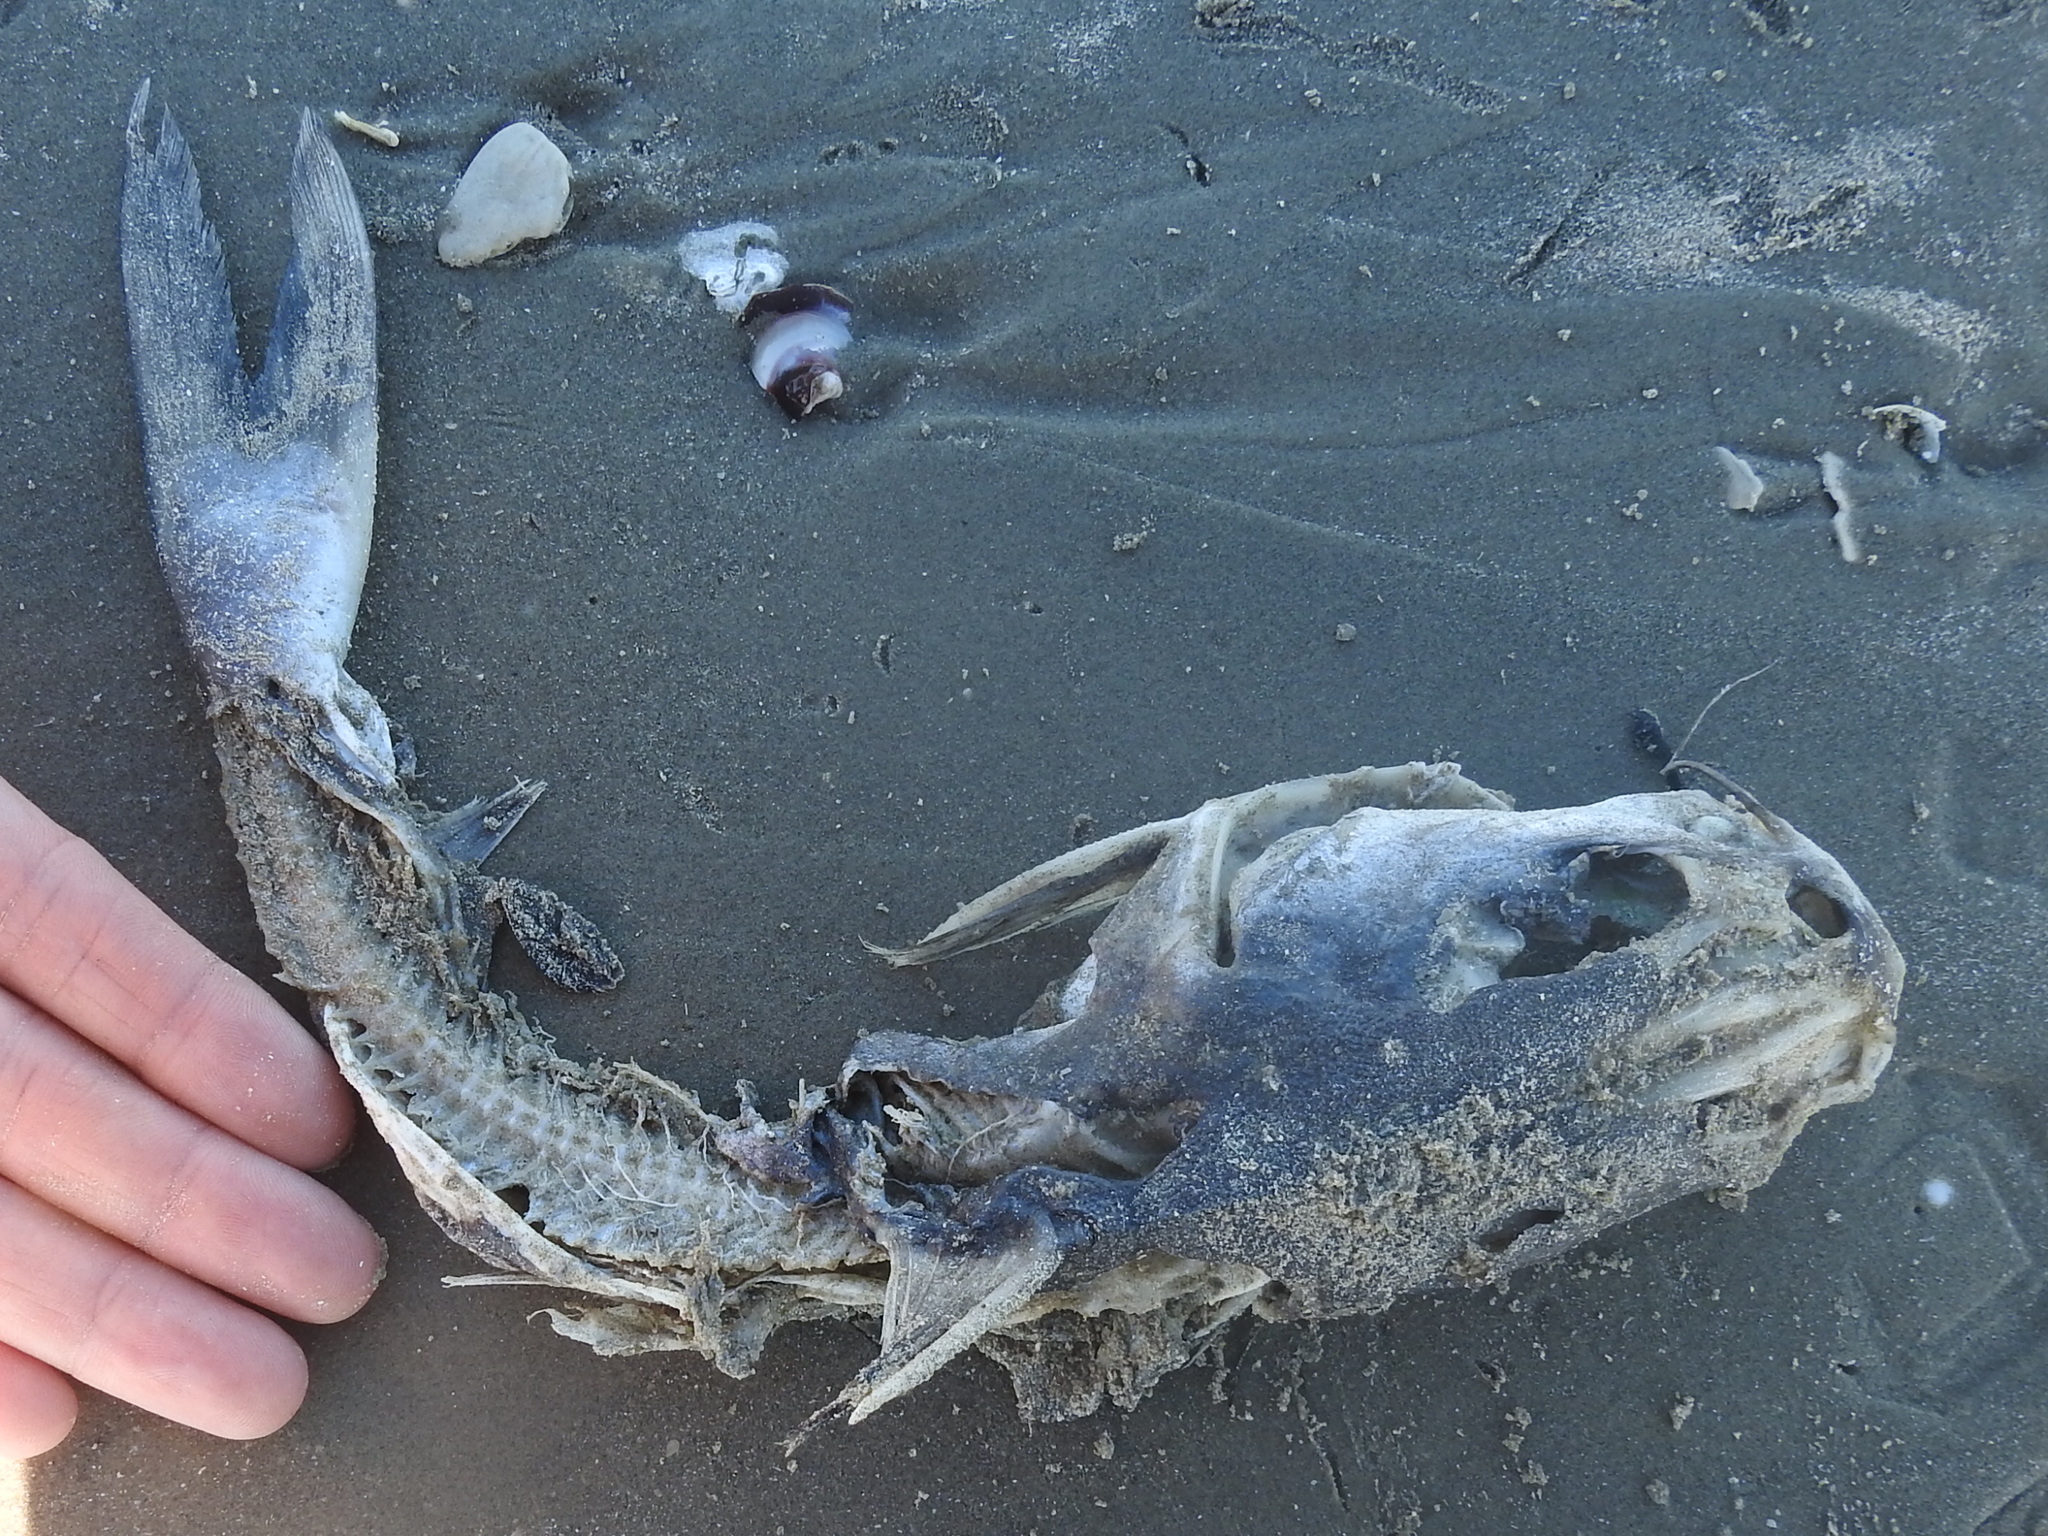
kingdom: Animalia
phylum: Chordata
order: Siluriformes
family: Ariidae
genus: Ariopsis
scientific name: Ariopsis felis
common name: Hardhead catfish
